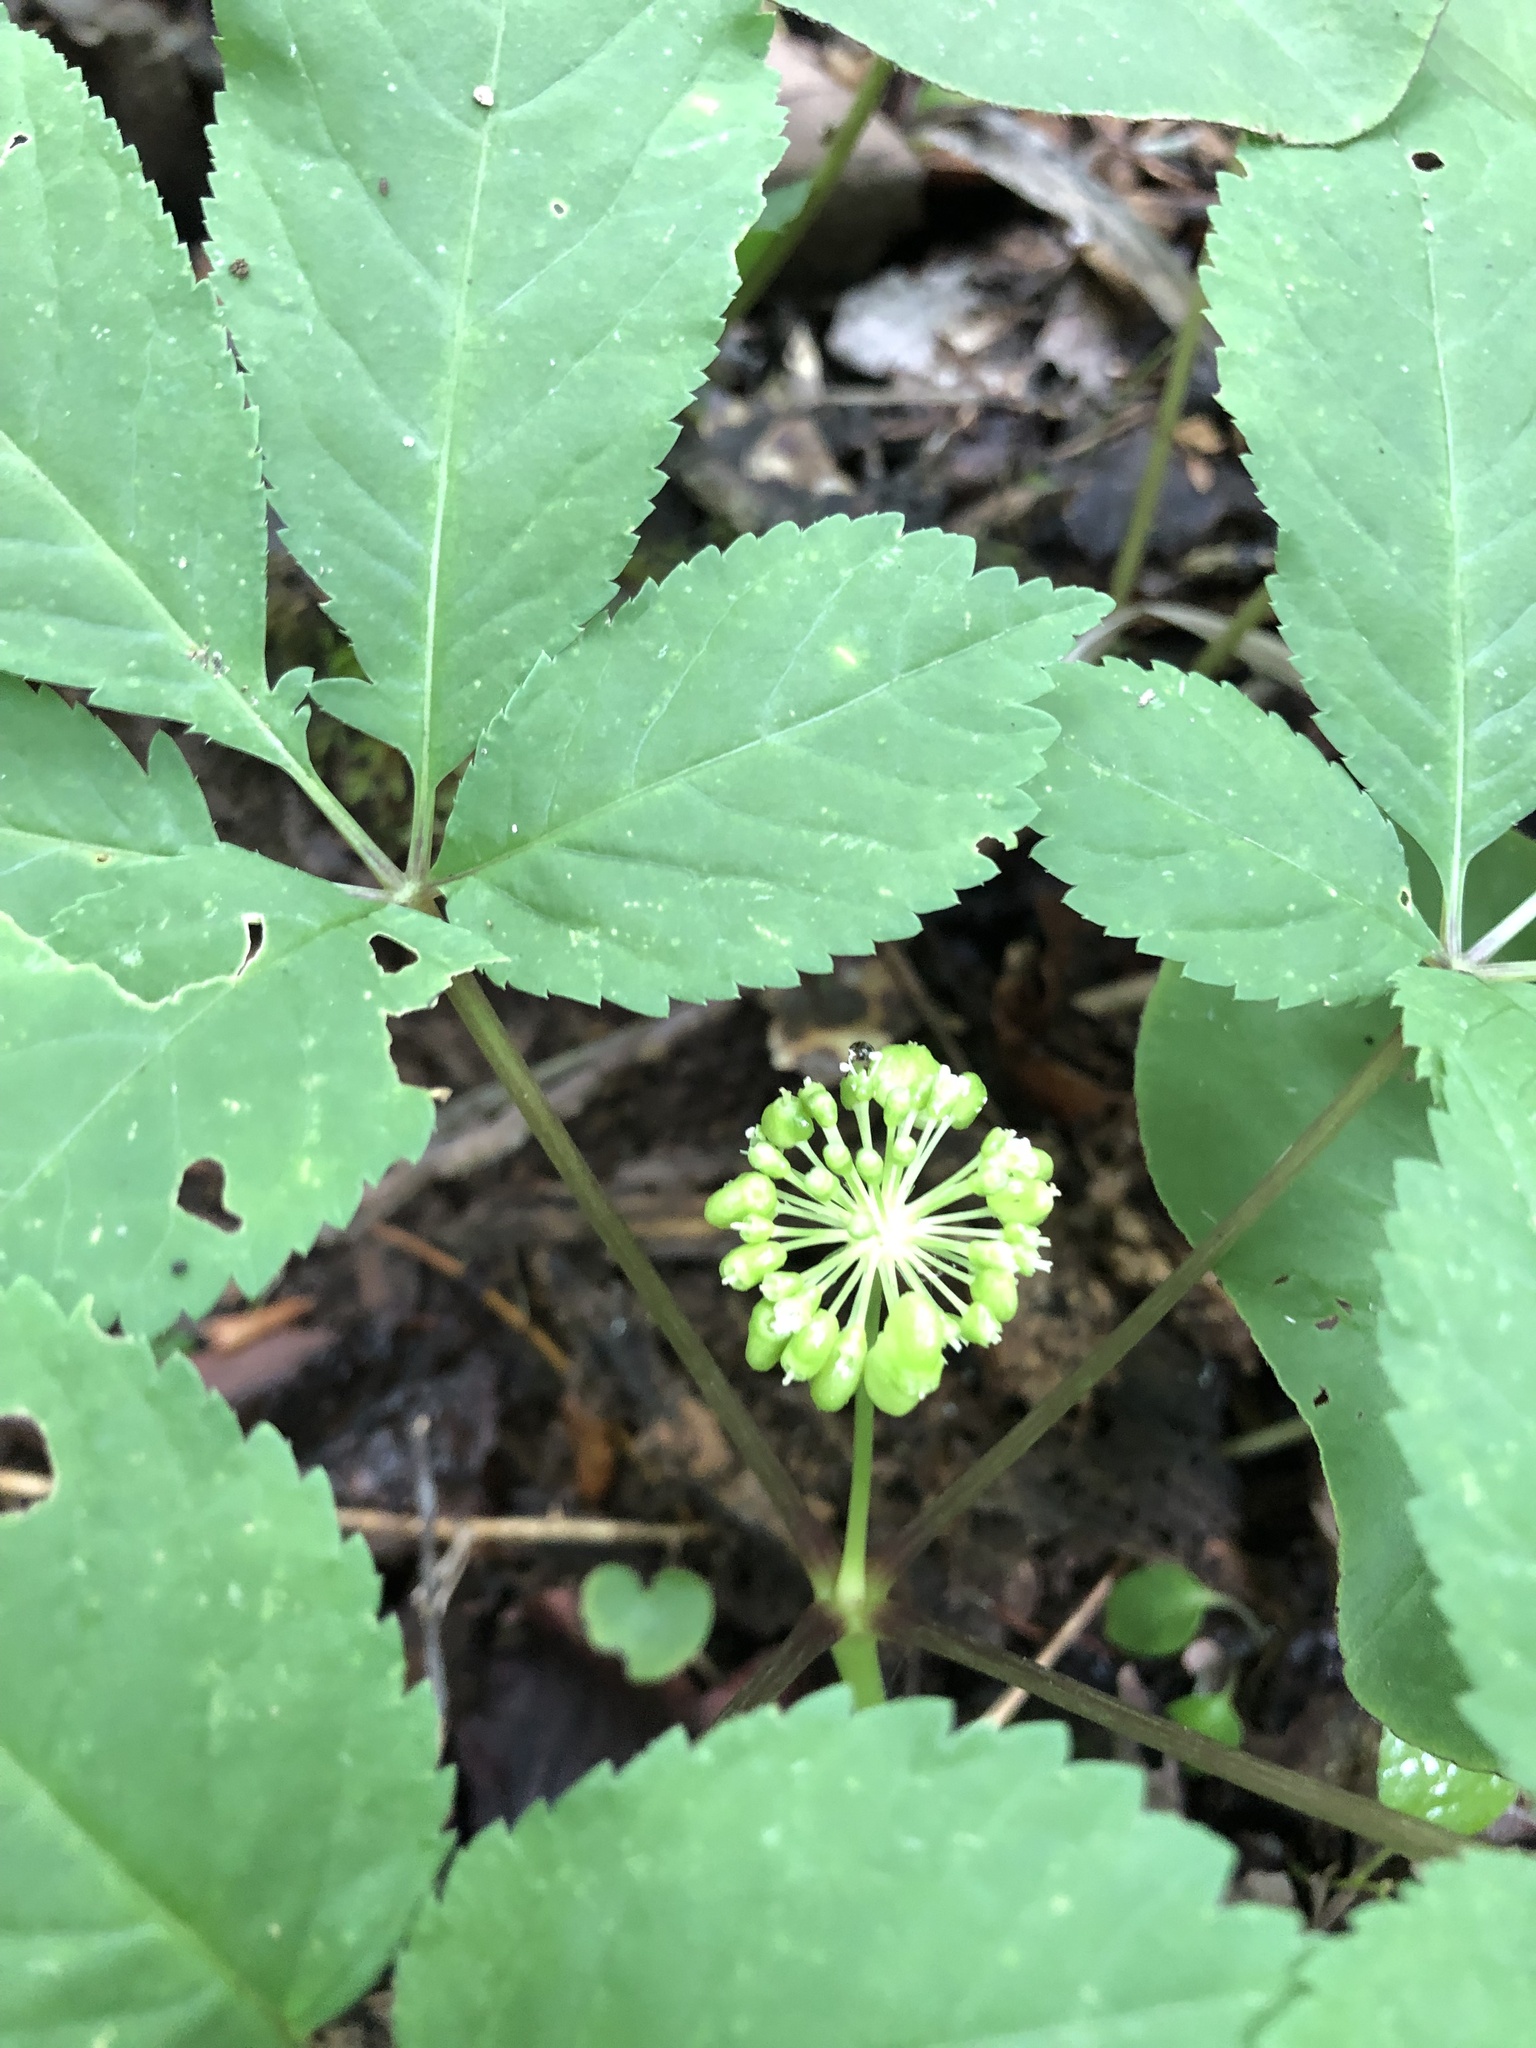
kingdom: Plantae
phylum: Tracheophyta
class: Magnoliopsida
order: Apiales
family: Araliaceae
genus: Panax
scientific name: Panax quinquefolius
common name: American ginseng
